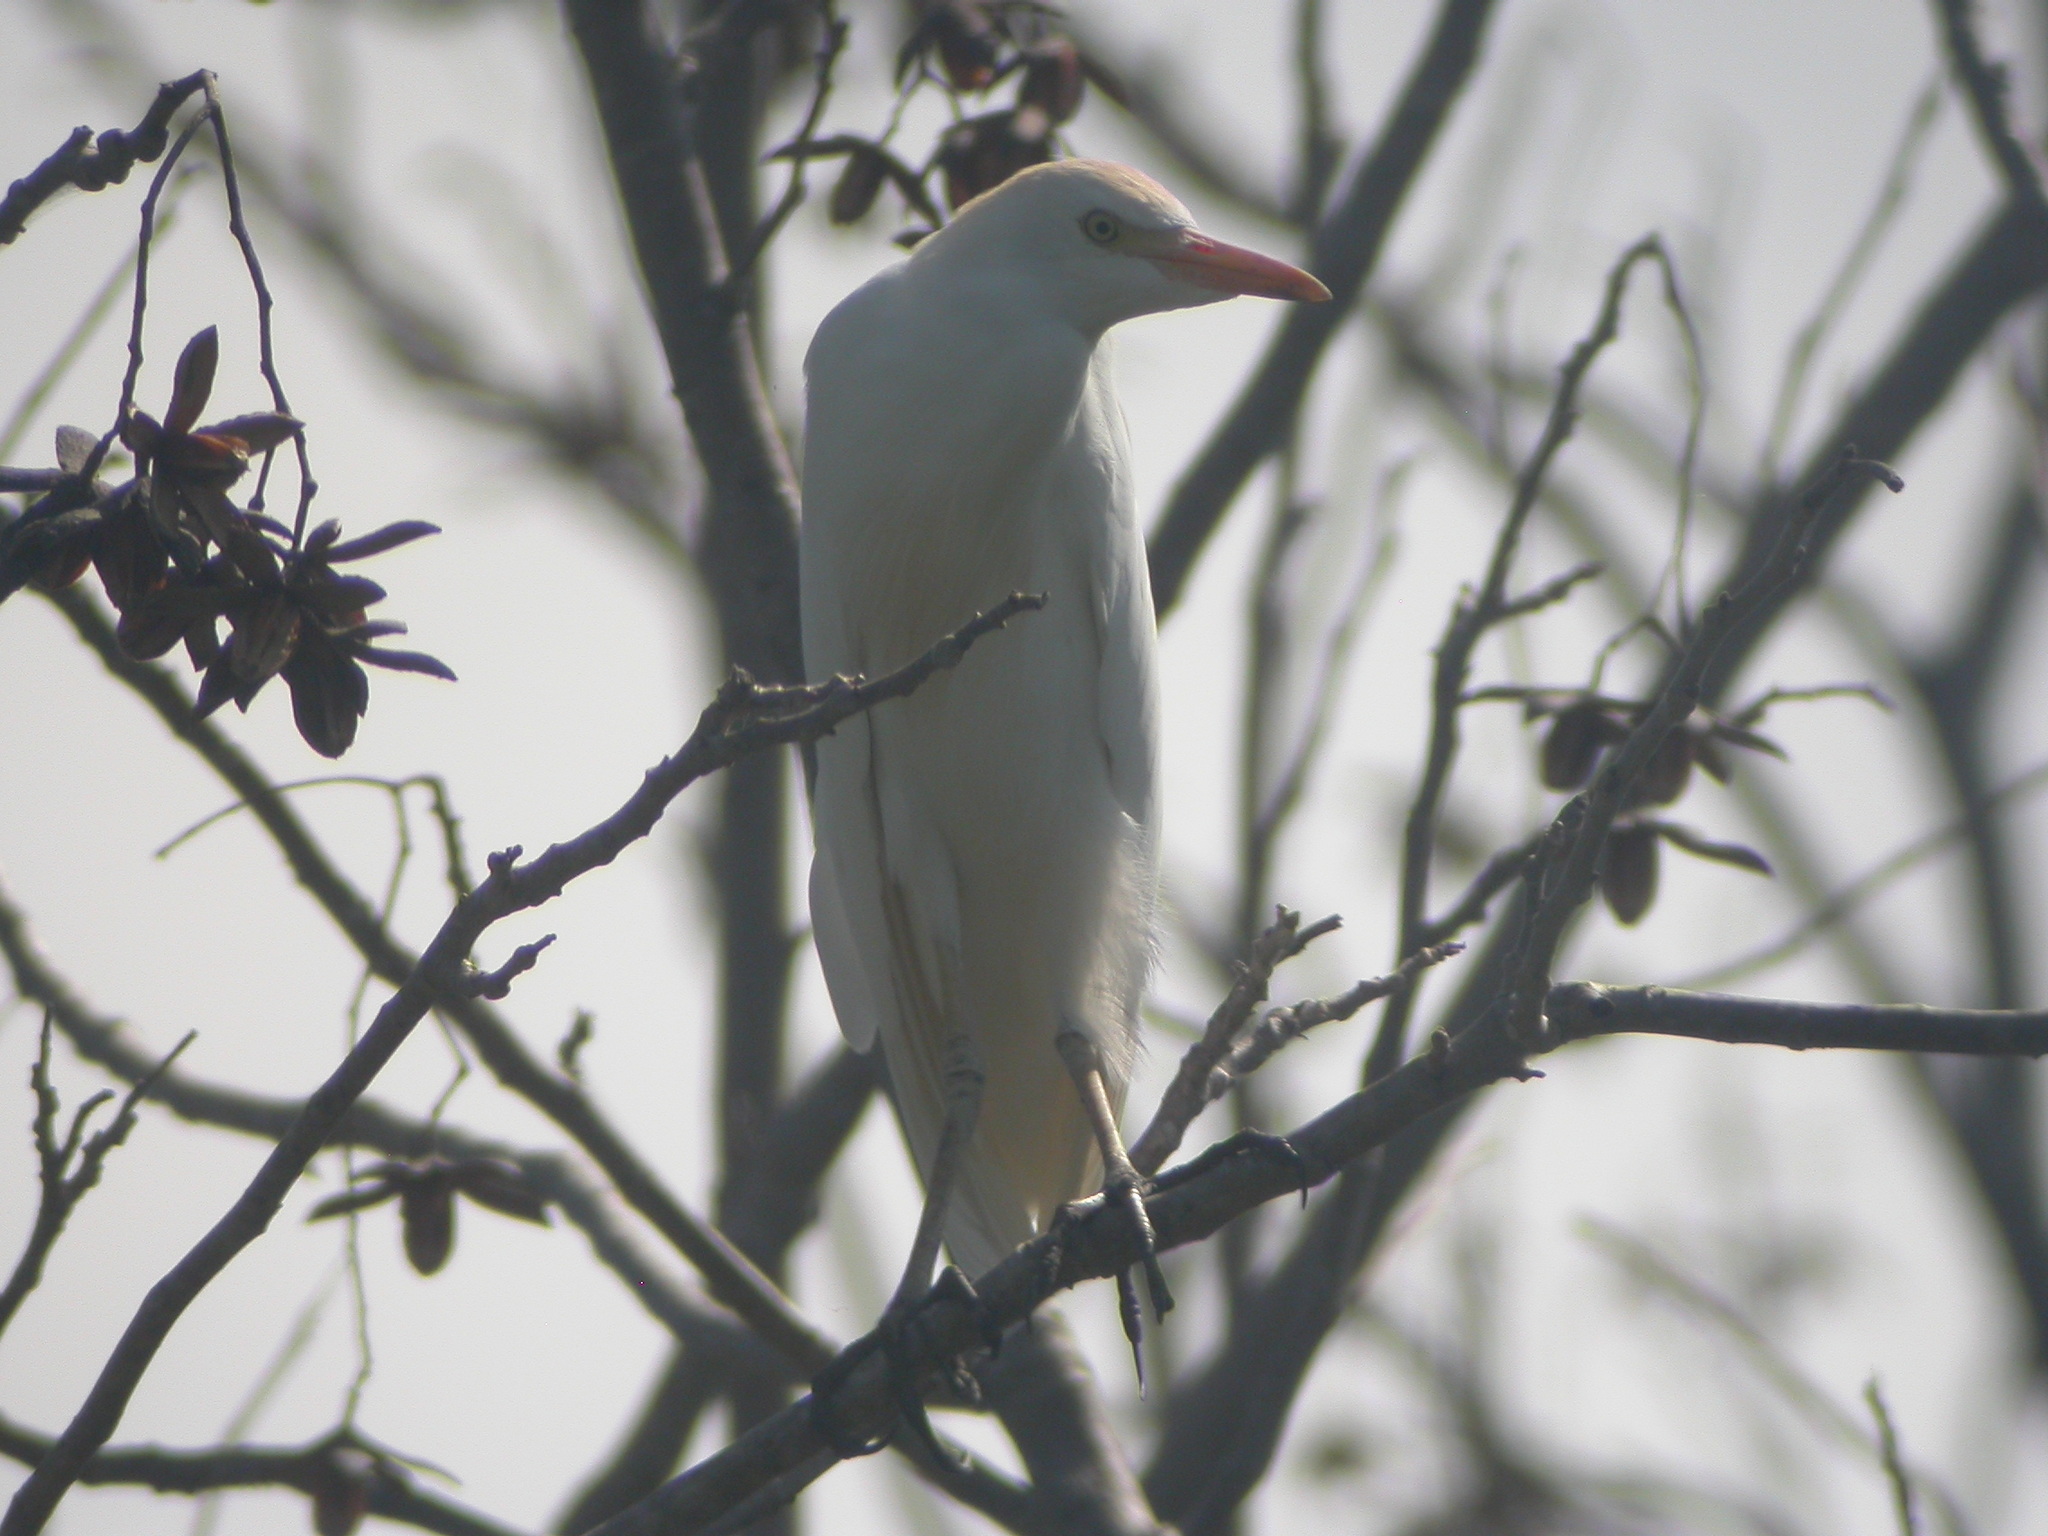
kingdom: Animalia
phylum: Chordata
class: Aves
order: Pelecaniformes
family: Ardeidae
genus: Bubulcus
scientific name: Bubulcus ibis
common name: Cattle egret
